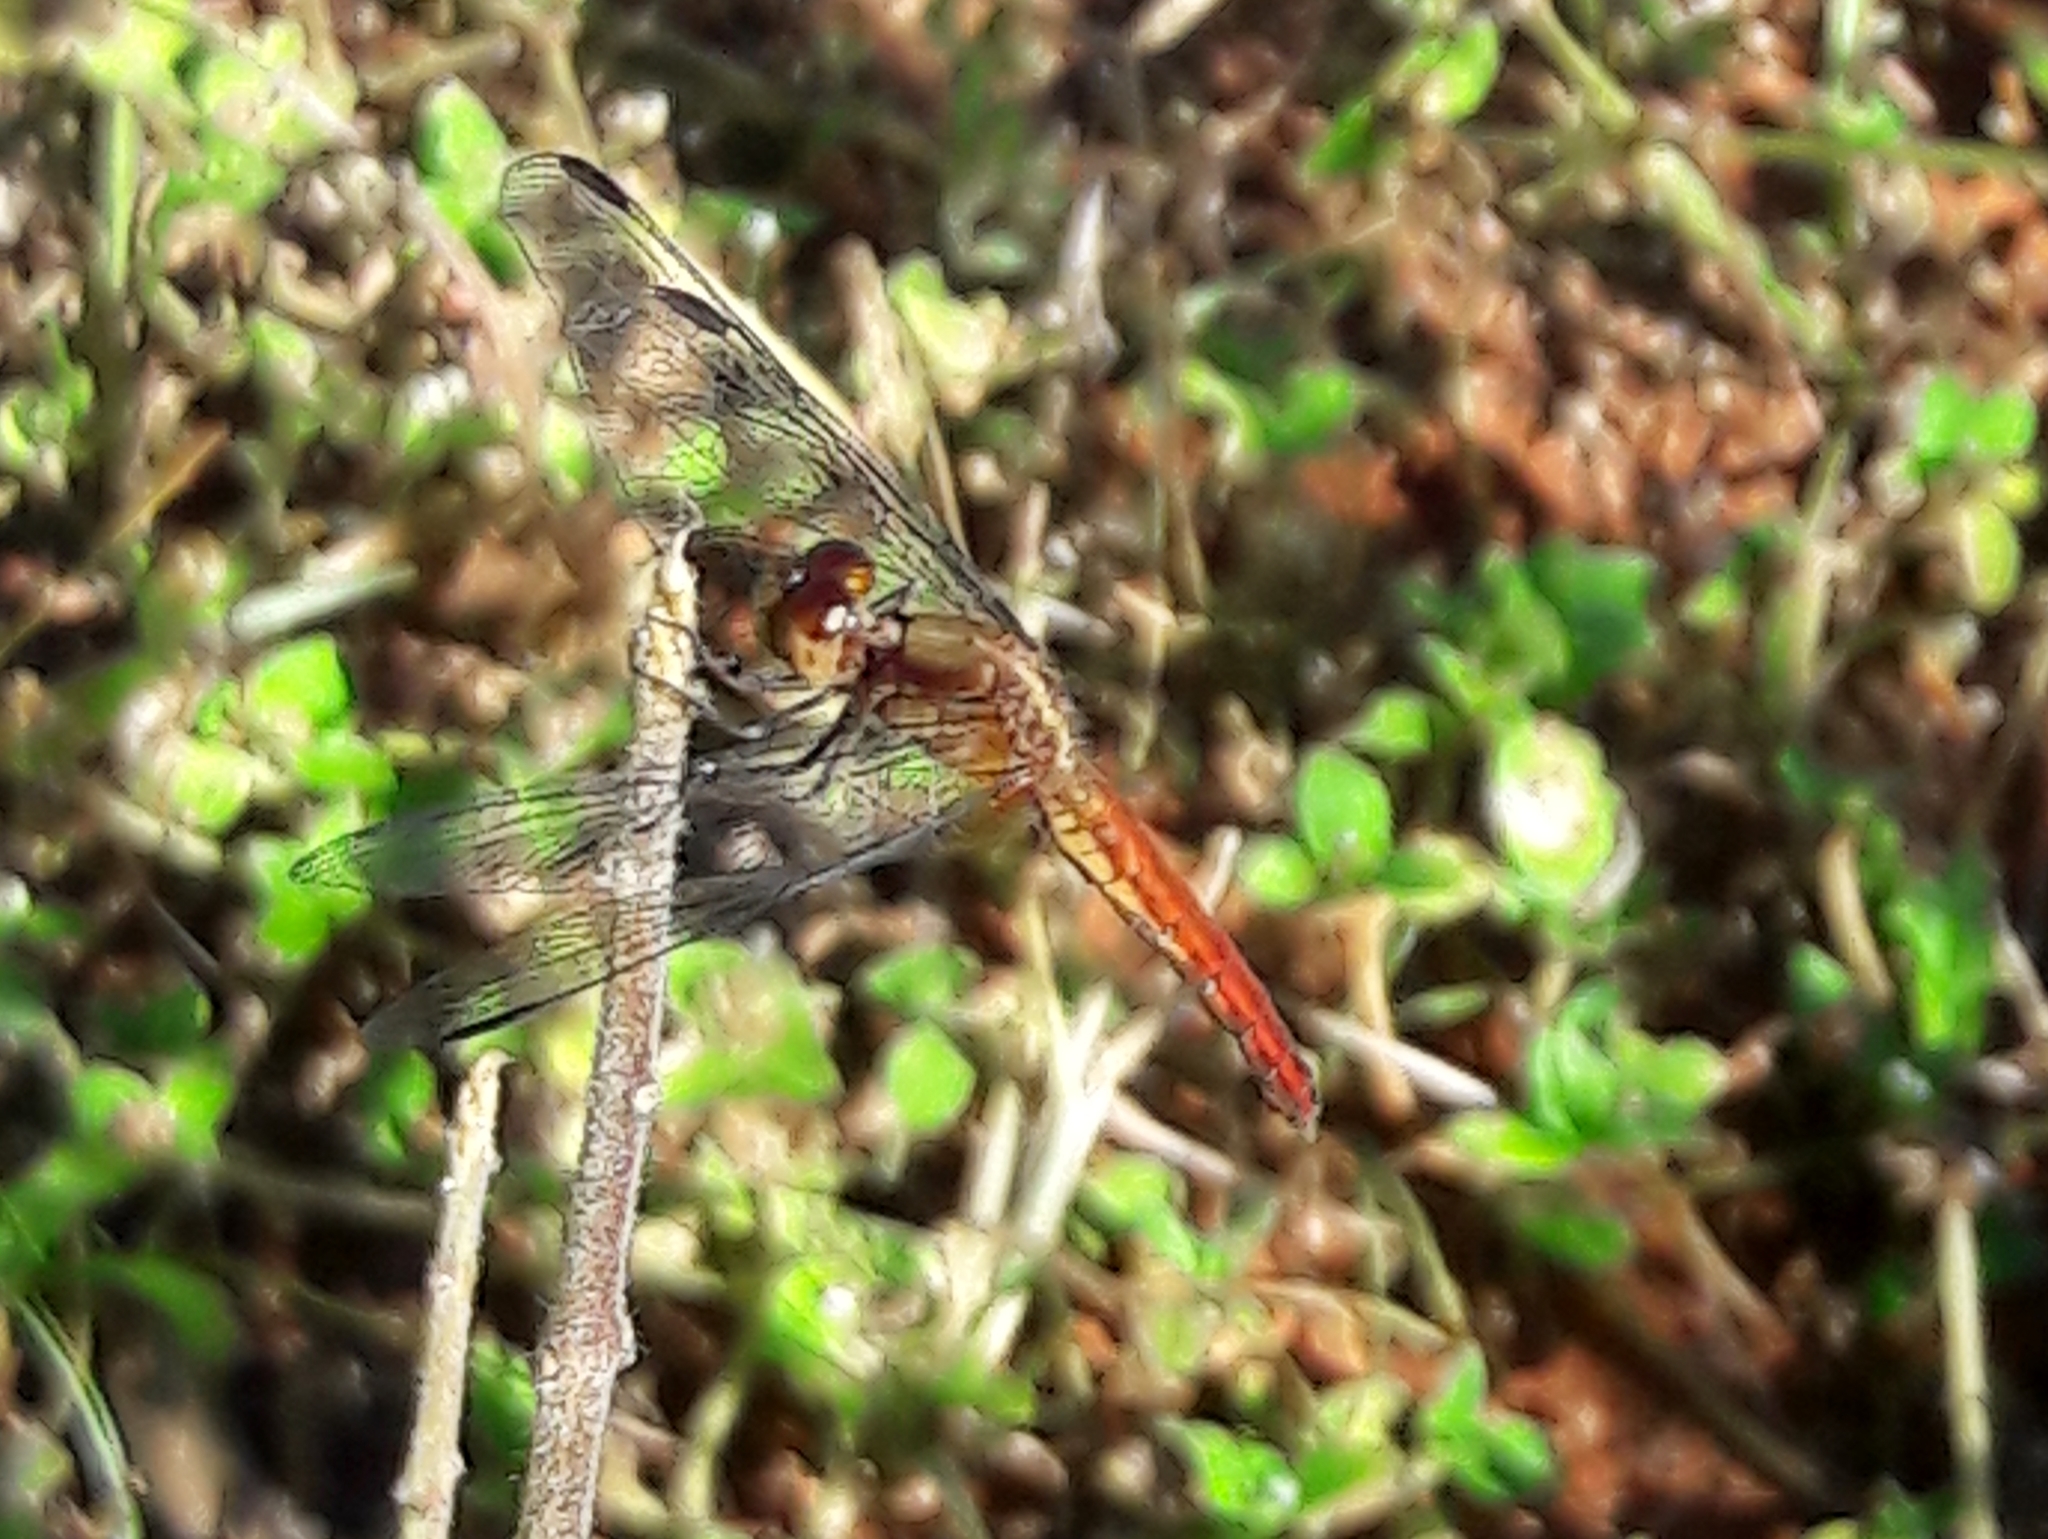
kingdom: Animalia
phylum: Arthropoda
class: Insecta
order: Odonata
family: Libellulidae
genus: Erythrodiplax
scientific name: Erythrodiplax fusca
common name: Red-faced dragonlet
